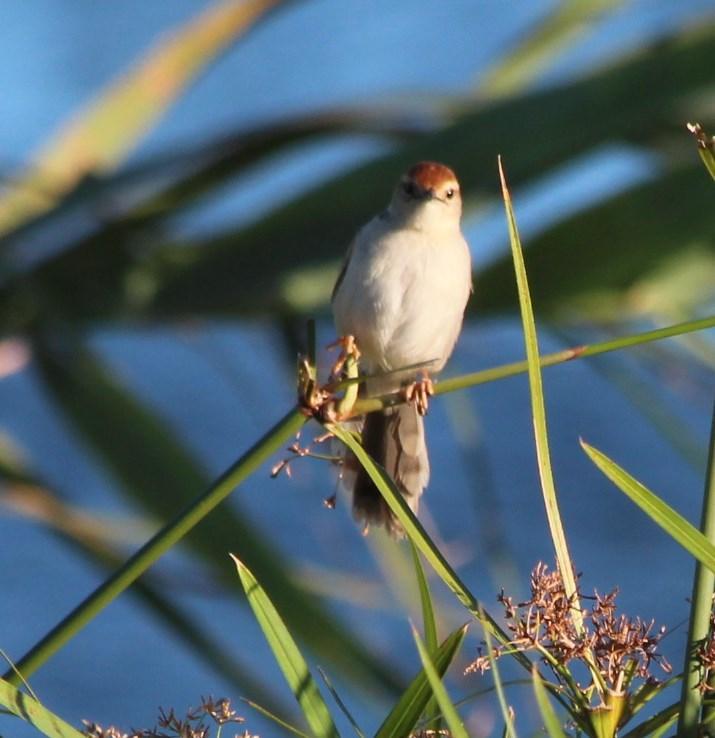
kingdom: Animalia
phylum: Chordata
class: Aves
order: Passeriformes
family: Cisticolidae
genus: Cisticola
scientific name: Cisticola tinniens
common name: Levaillant's cisticola
